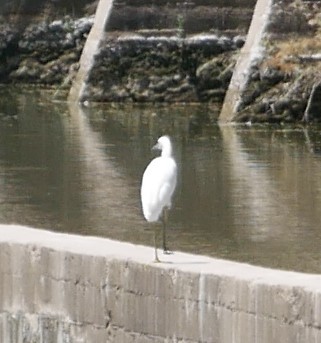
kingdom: Animalia
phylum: Chordata
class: Aves
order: Pelecaniformes
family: Ardeidae
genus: Egretta
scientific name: Egretta thula
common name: Snowy egret
